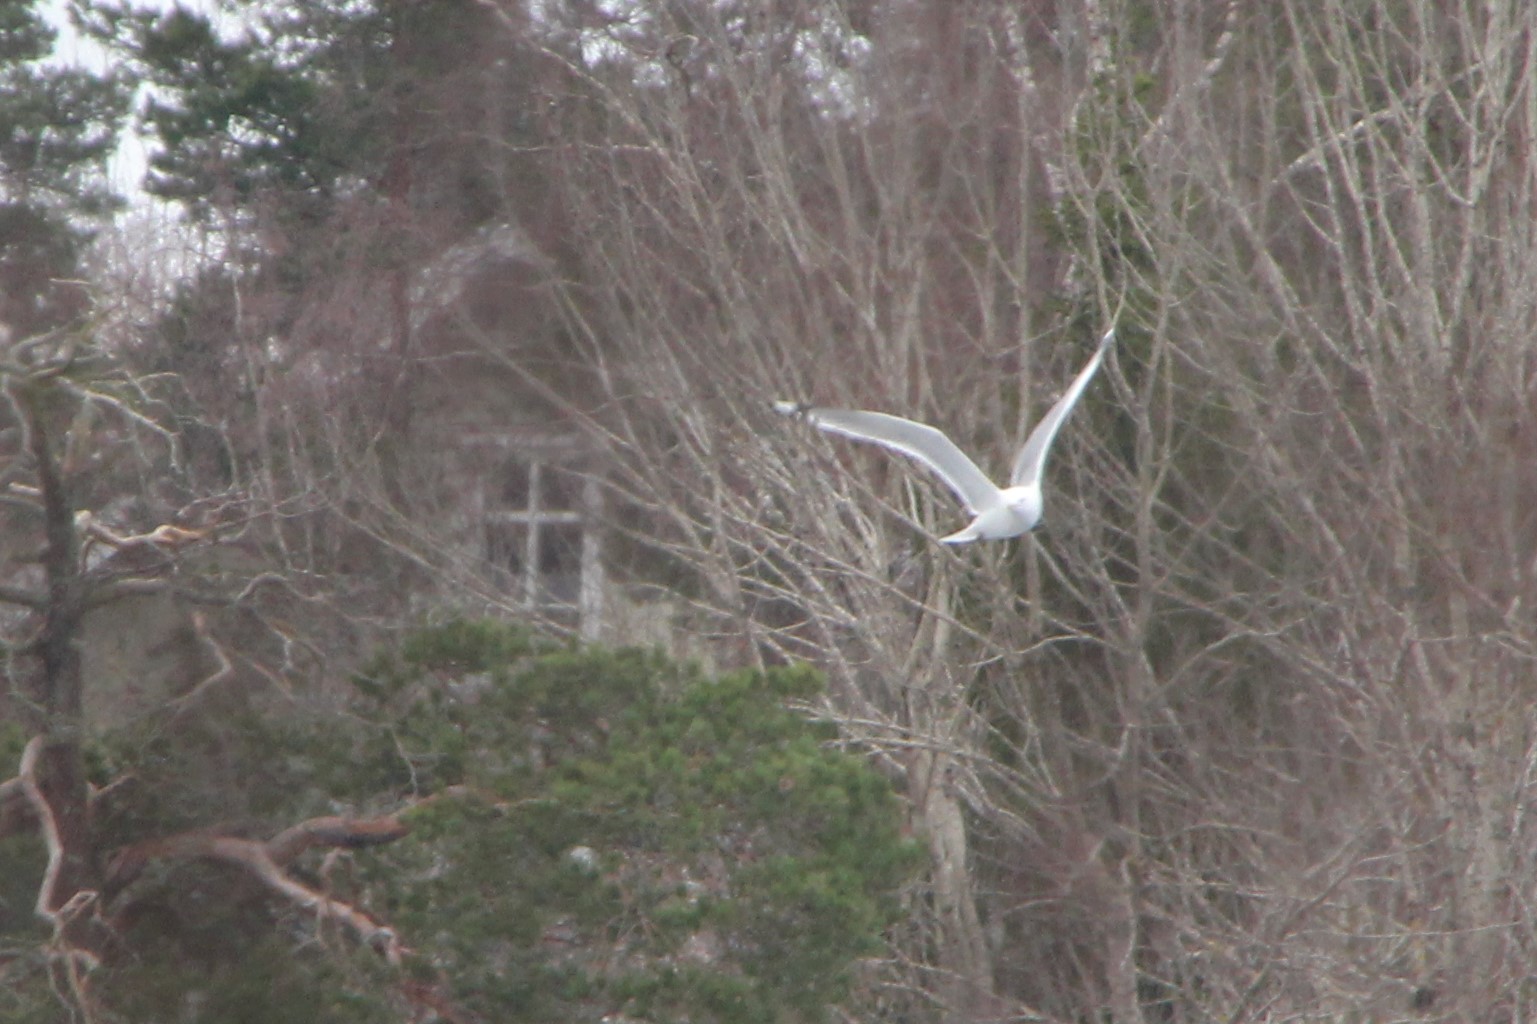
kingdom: Animalia
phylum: Chordata
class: Aves
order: Charadriiformes
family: Laridae
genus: Larus
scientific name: Larus argentatus
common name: Herring gull
